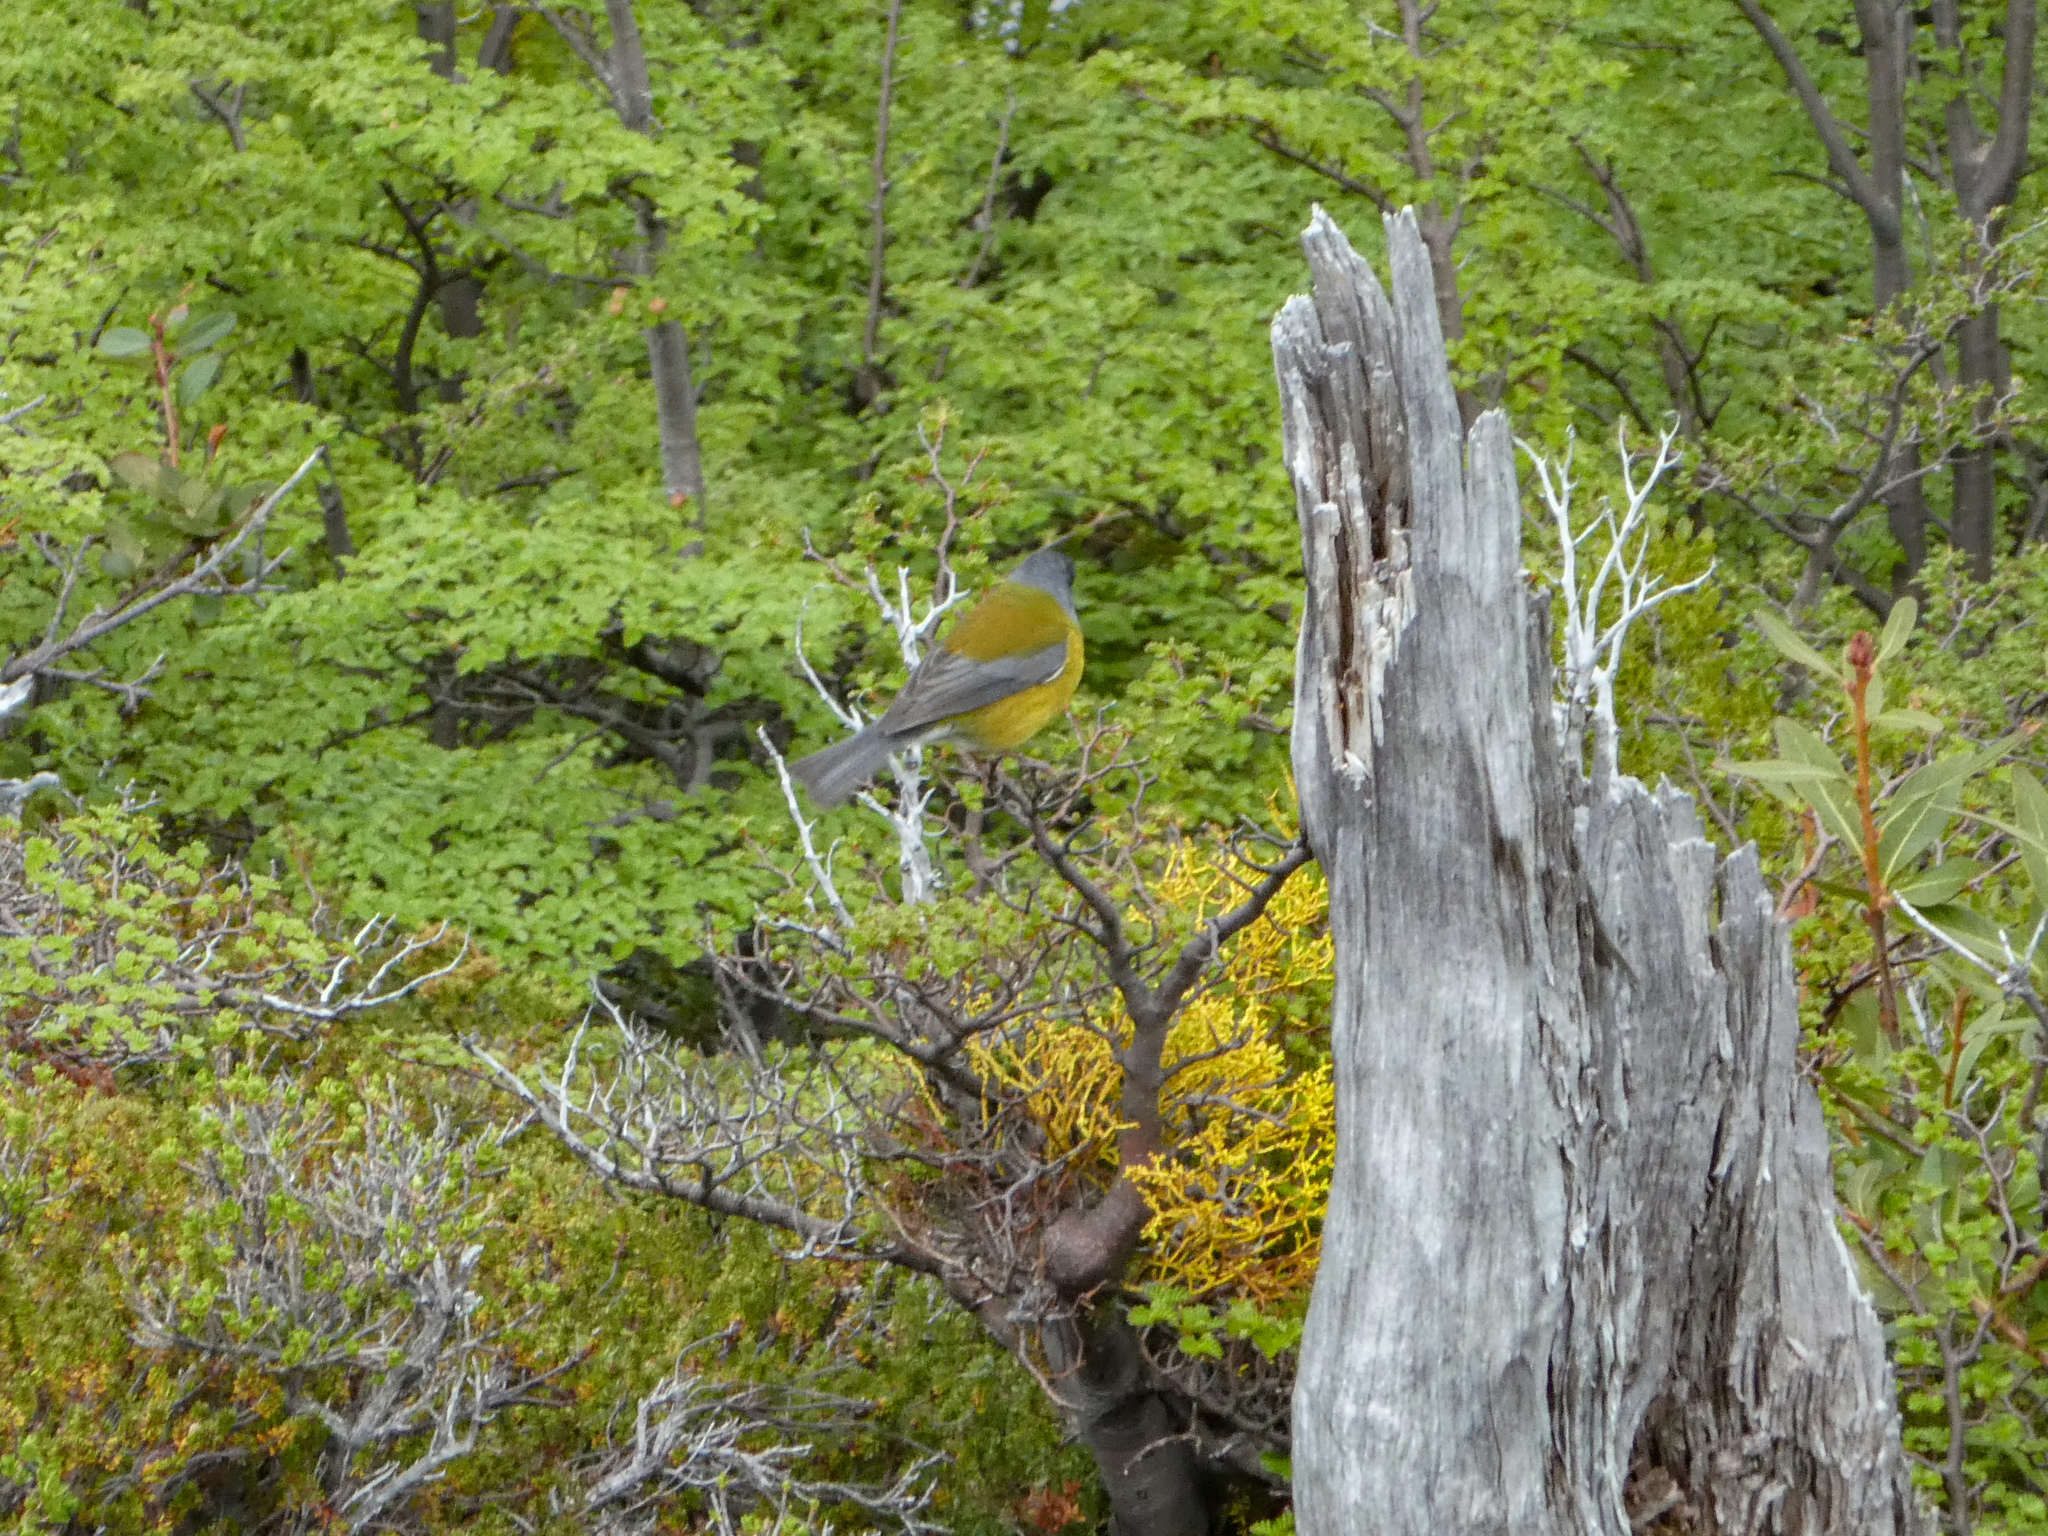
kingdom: Animalia
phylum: Chordata
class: Aves
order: Passeriformes
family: Thraupidae
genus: Phrygilus
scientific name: Phrygilus gayi
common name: Grey-hooded sierra finch
